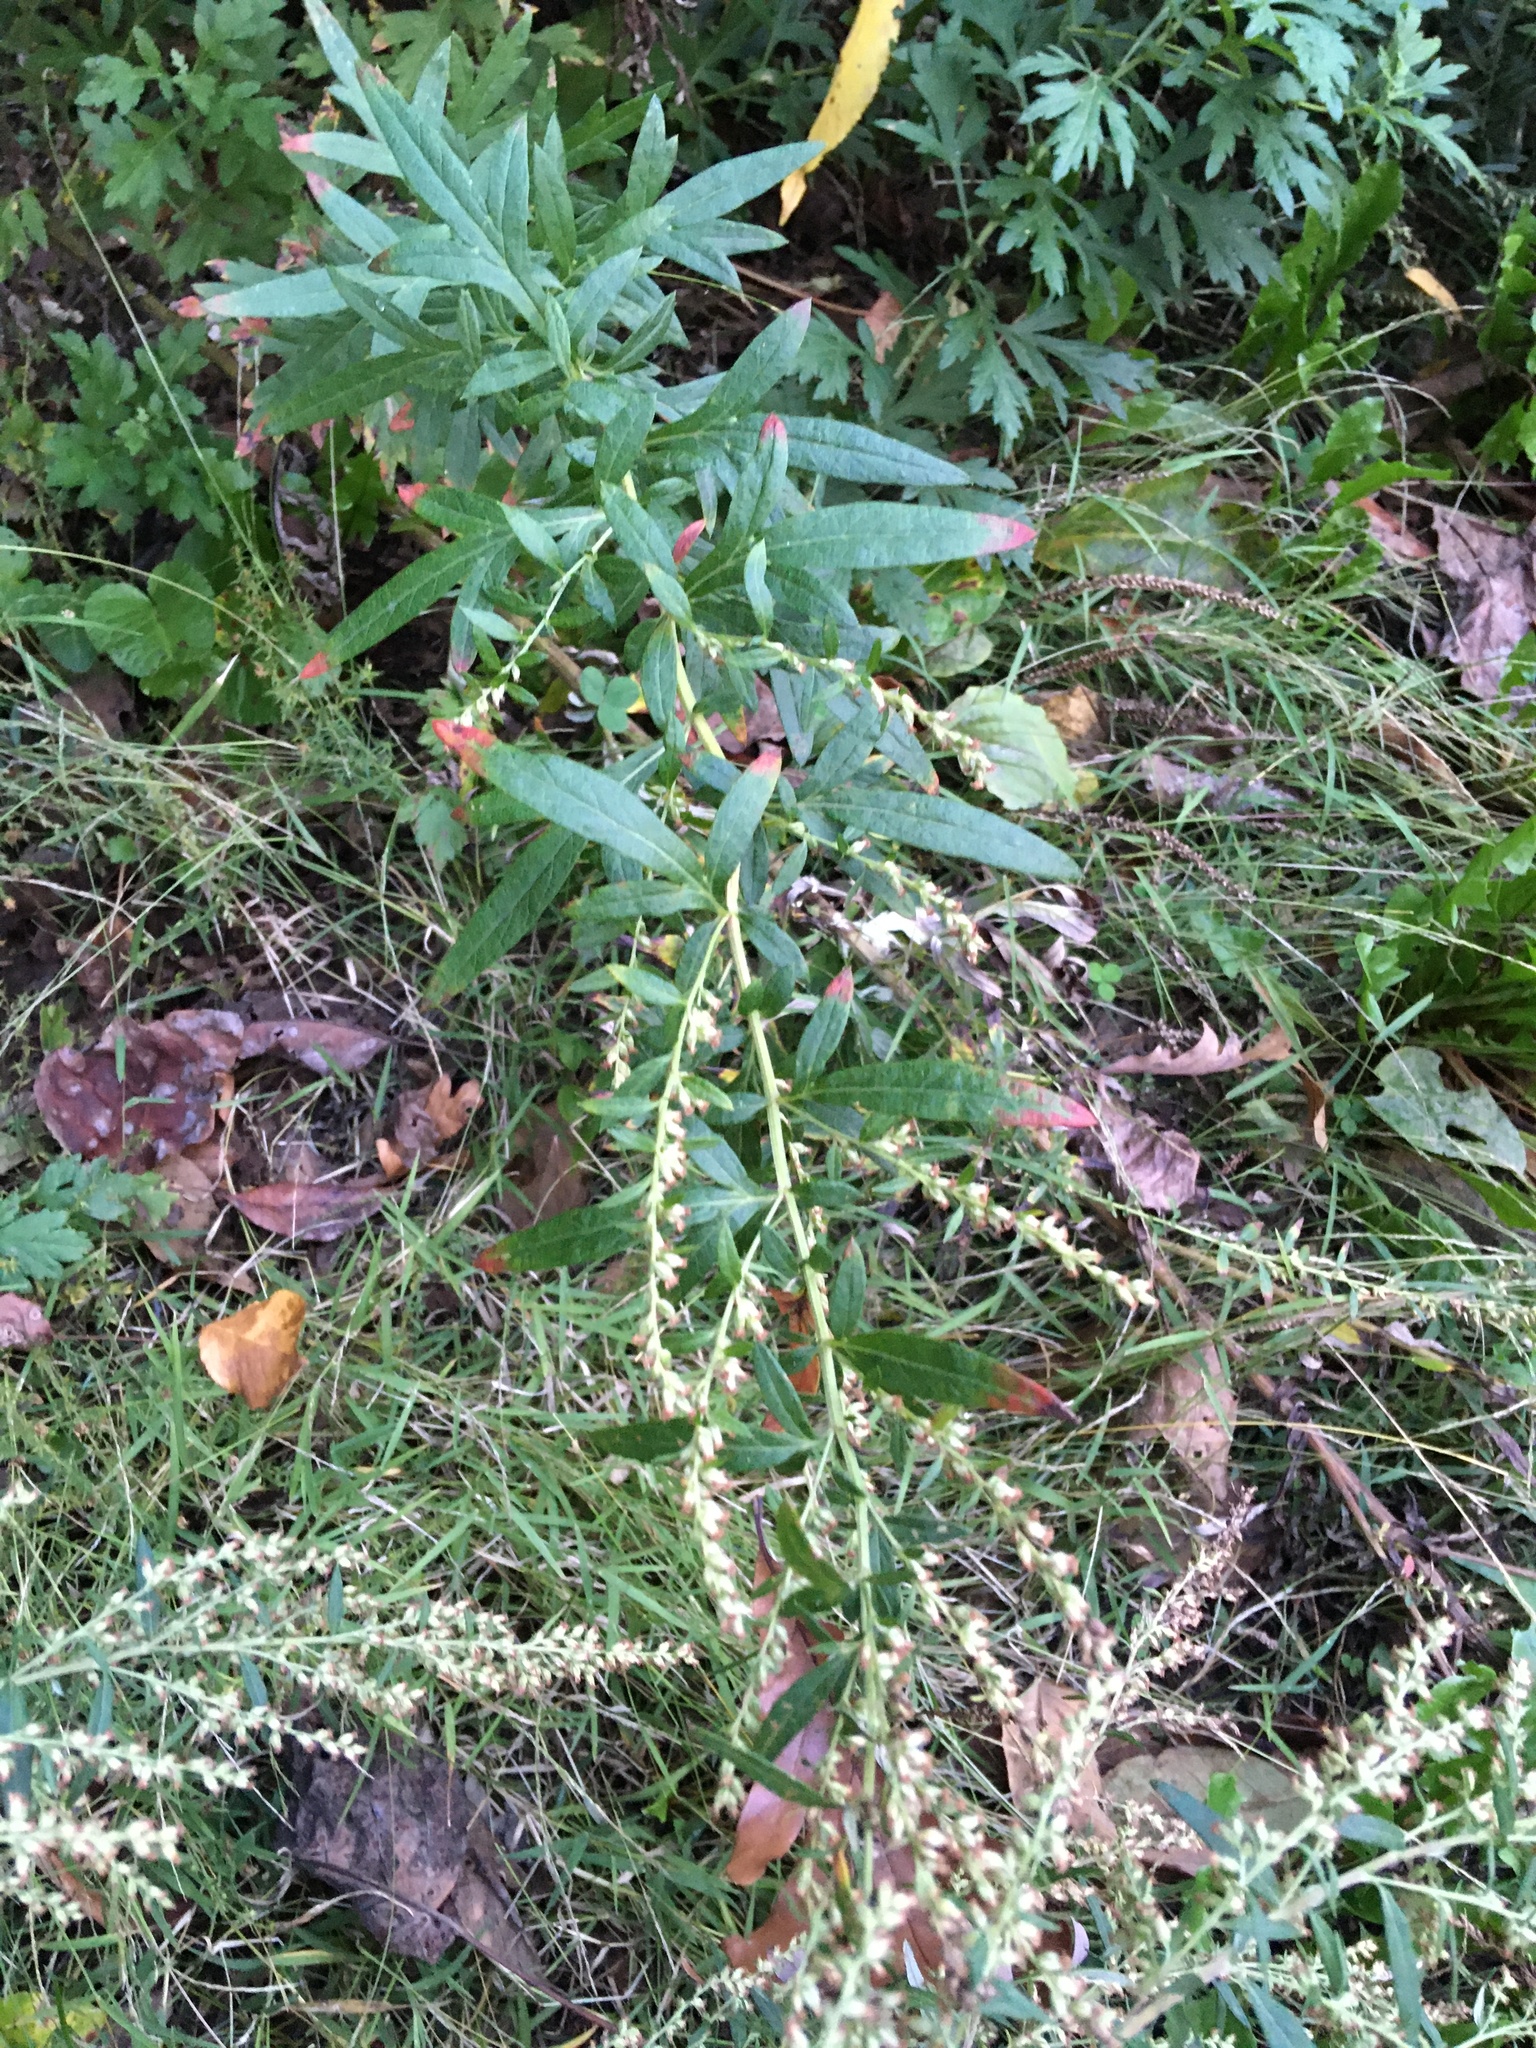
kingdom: Plantae
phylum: Tracheophyta
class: Magnoliopsida
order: Asterales
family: Asteraceae
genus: Artemisia
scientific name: Artemisia vulgaris
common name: Mugwort
